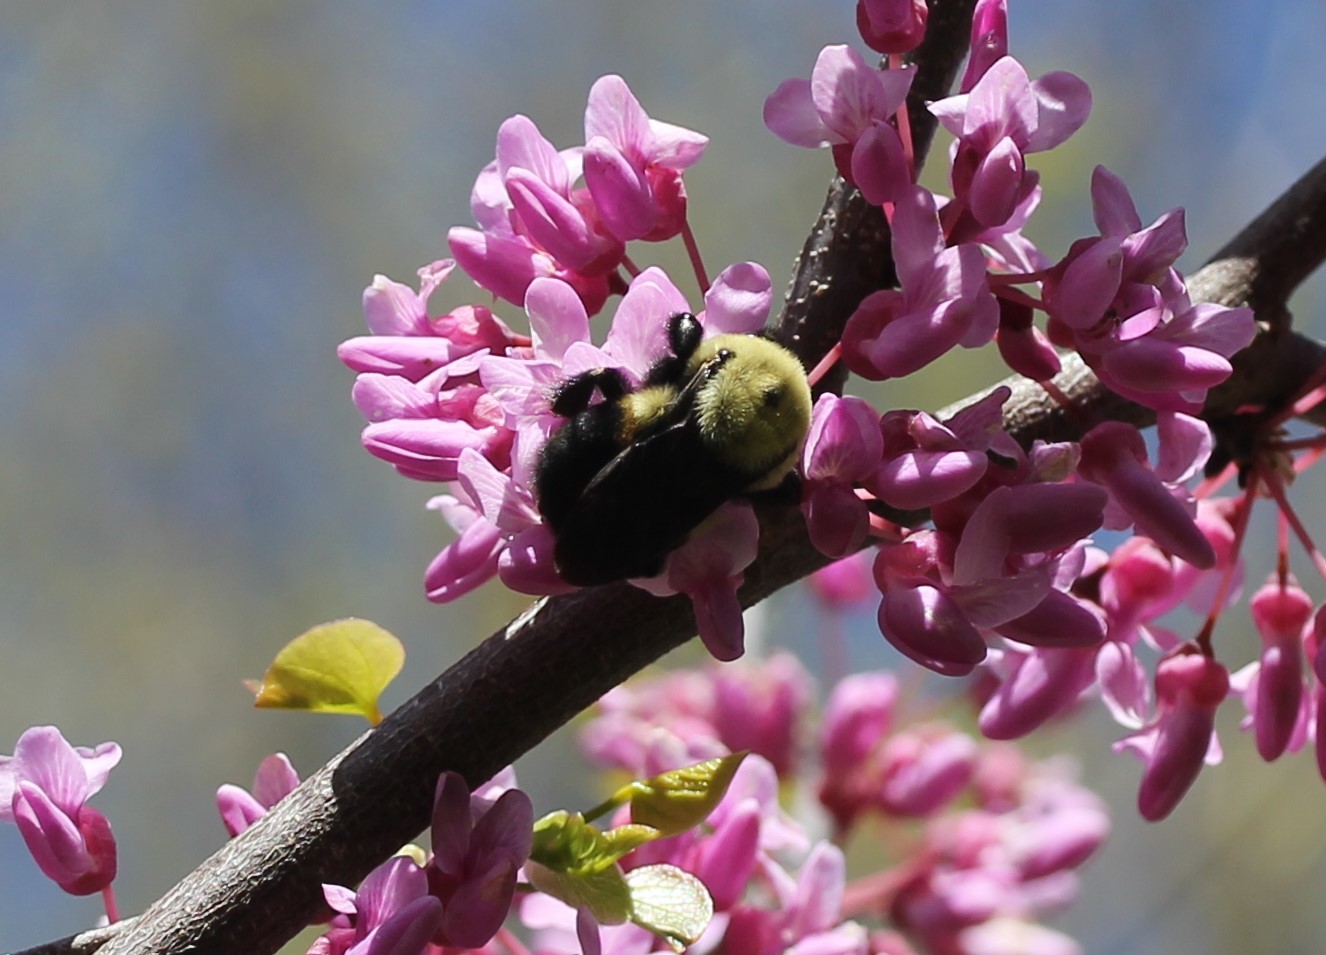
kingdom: Animalia
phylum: Arthropoda
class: Insecta
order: Hymenoptera
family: Apidae
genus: Bombus
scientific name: Bombus griseocollis
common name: Brown-belted bumble bee
